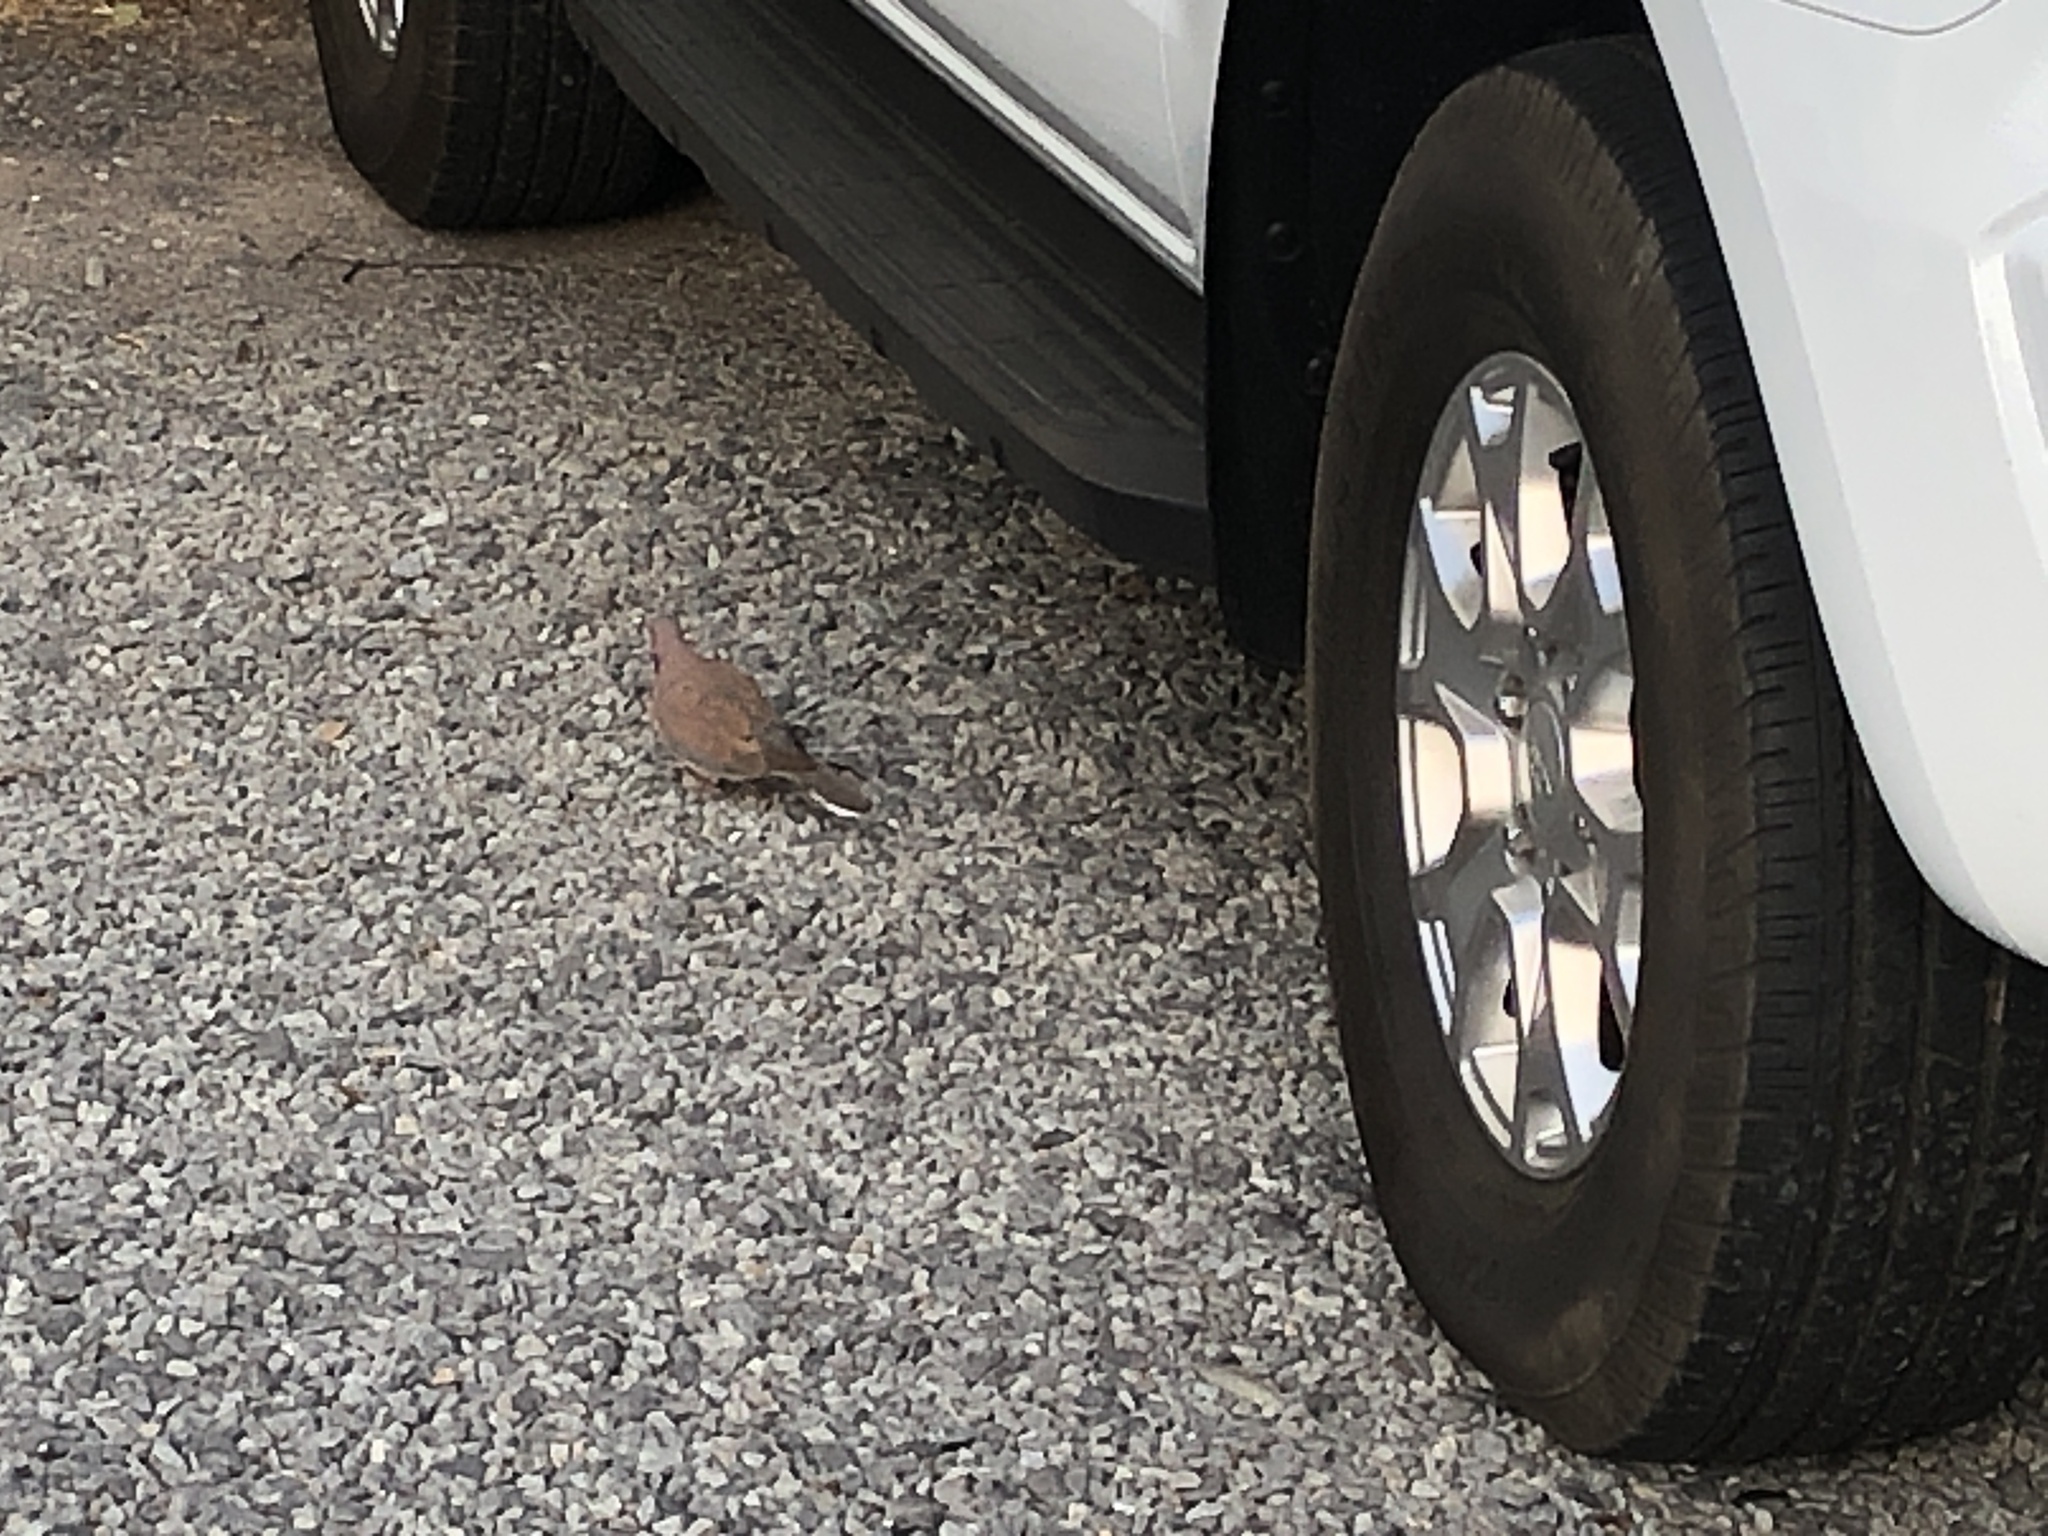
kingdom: Animalia
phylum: Chordata
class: Aves
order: Columbiformes
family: Columbidae
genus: Spilopelia
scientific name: Spilopelia senegalensis
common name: Laughing dove
